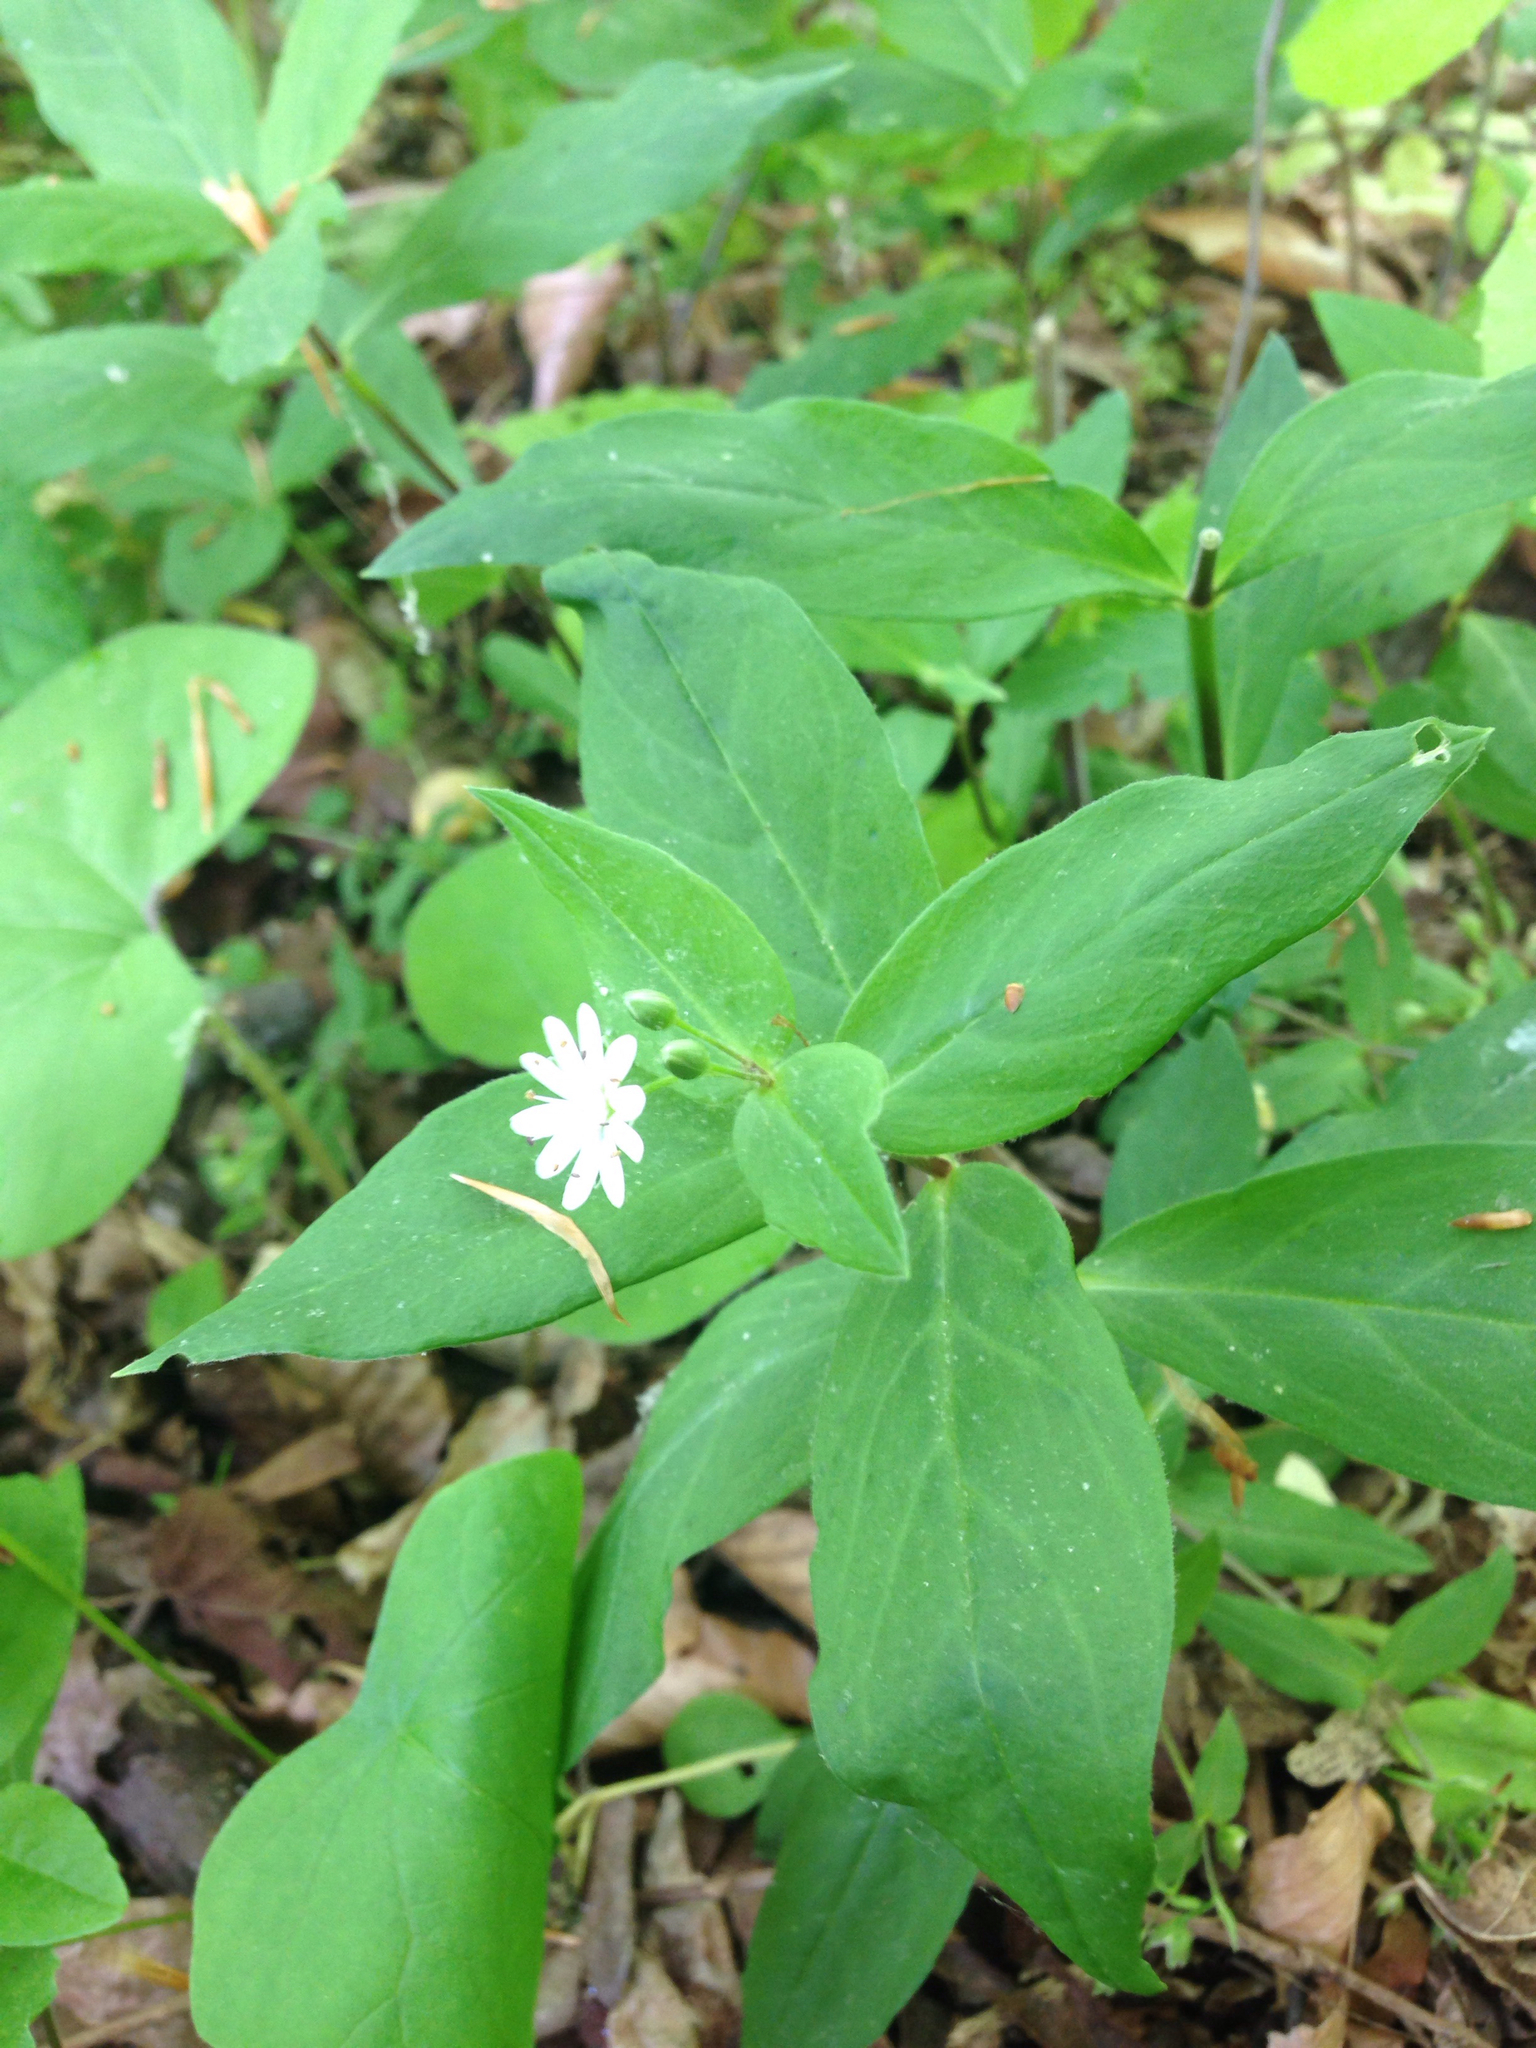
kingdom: Plantae
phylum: Tracheophyta
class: Magnoliopsida
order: Caryophyllales
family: Caryophyllaceae
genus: Stellaria
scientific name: Stellaria pubera
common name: Star chickweed
